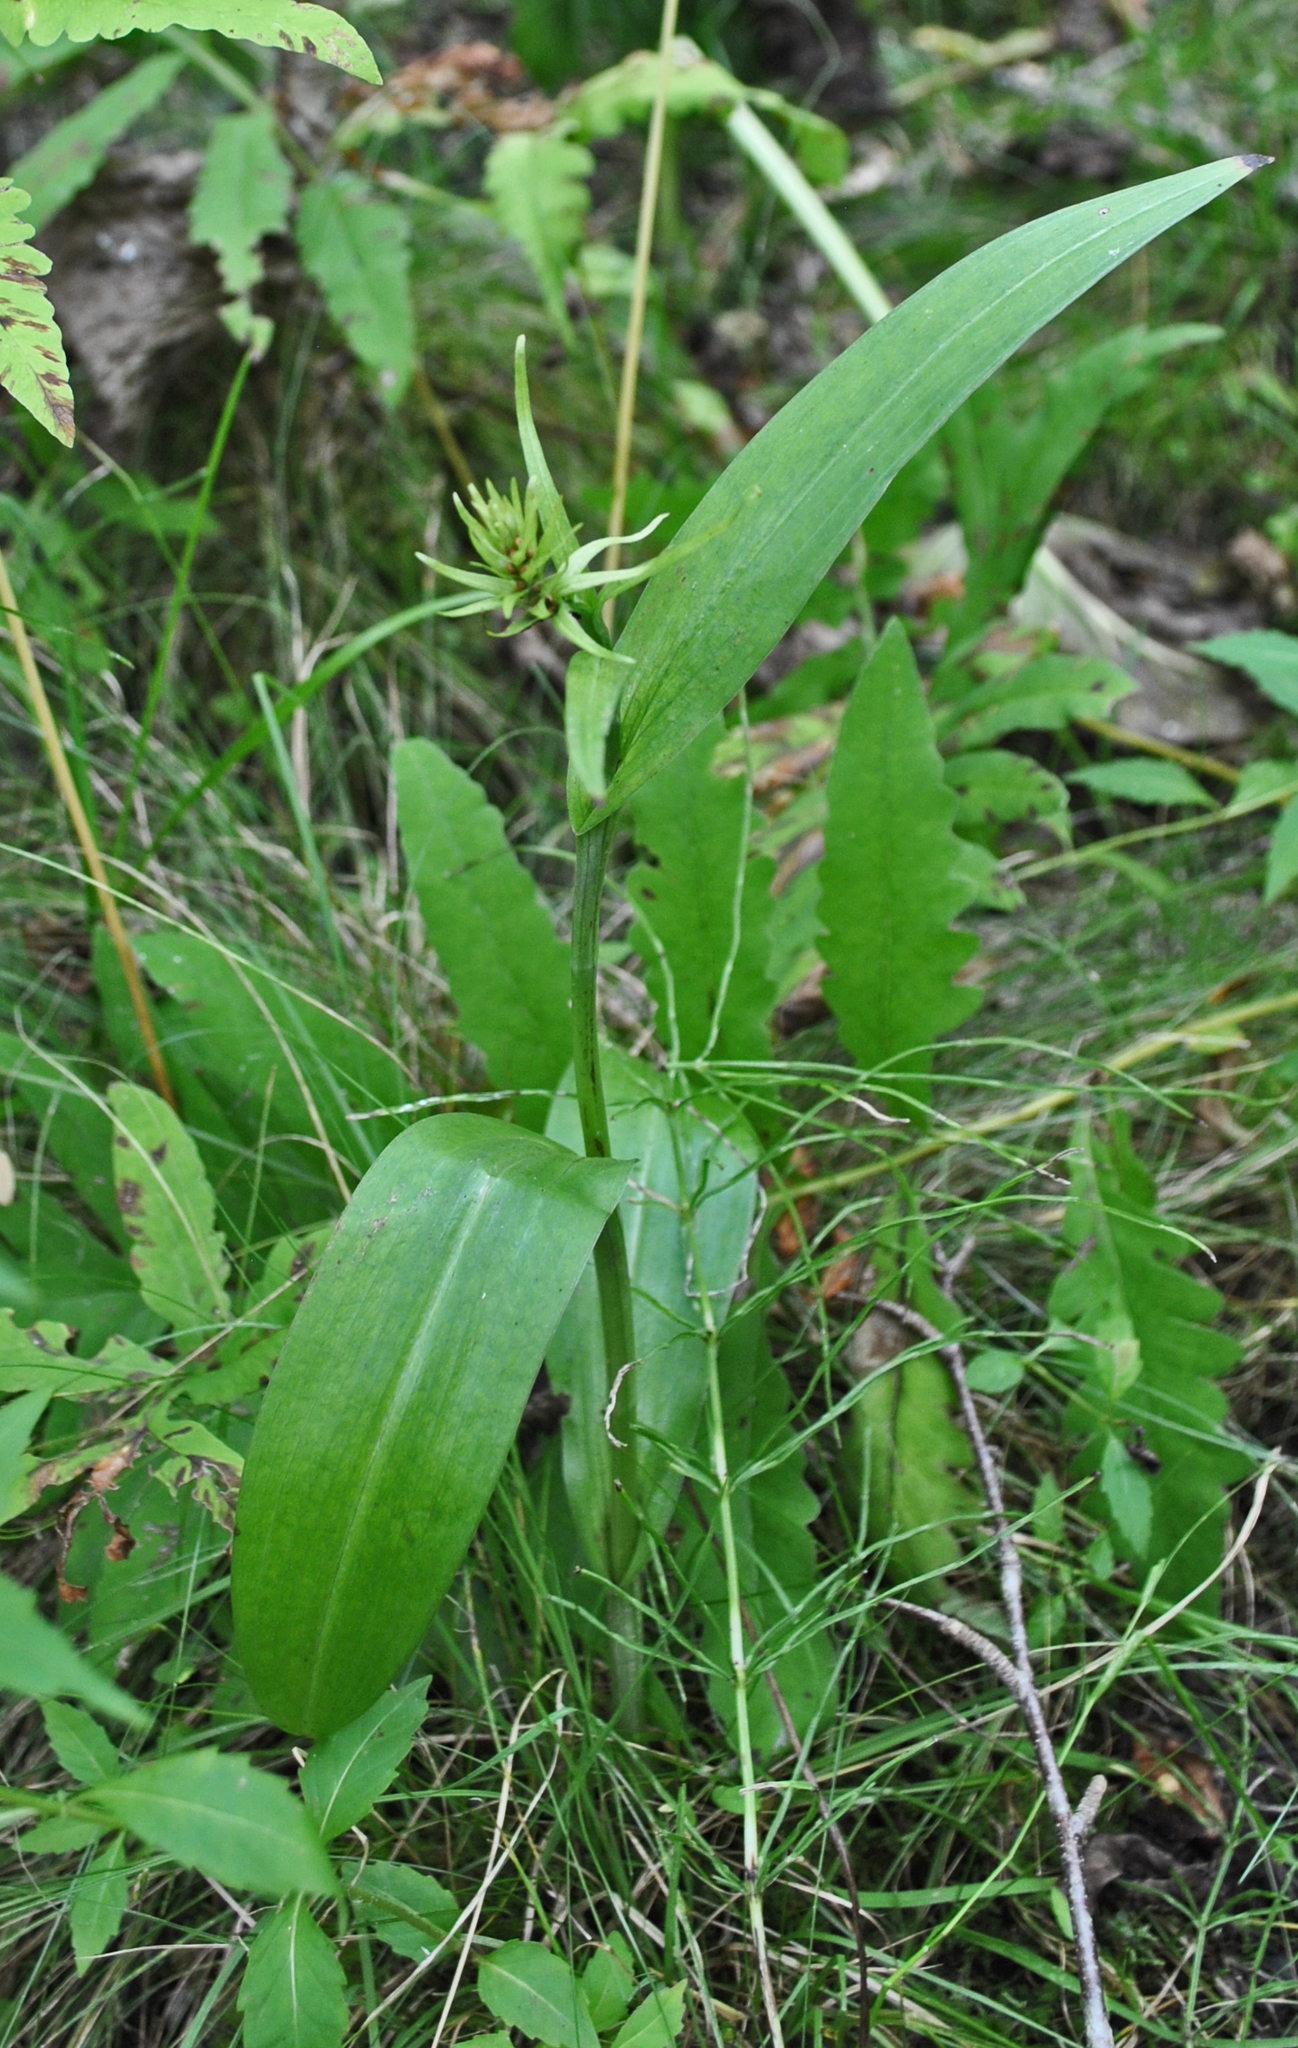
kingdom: Plantae
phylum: Tracheophyta
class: Liliopsida
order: Asparagales
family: Orchidaceae
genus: Platanthera
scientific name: Platanthera psycodes
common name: Lesser purple fringed orchid
